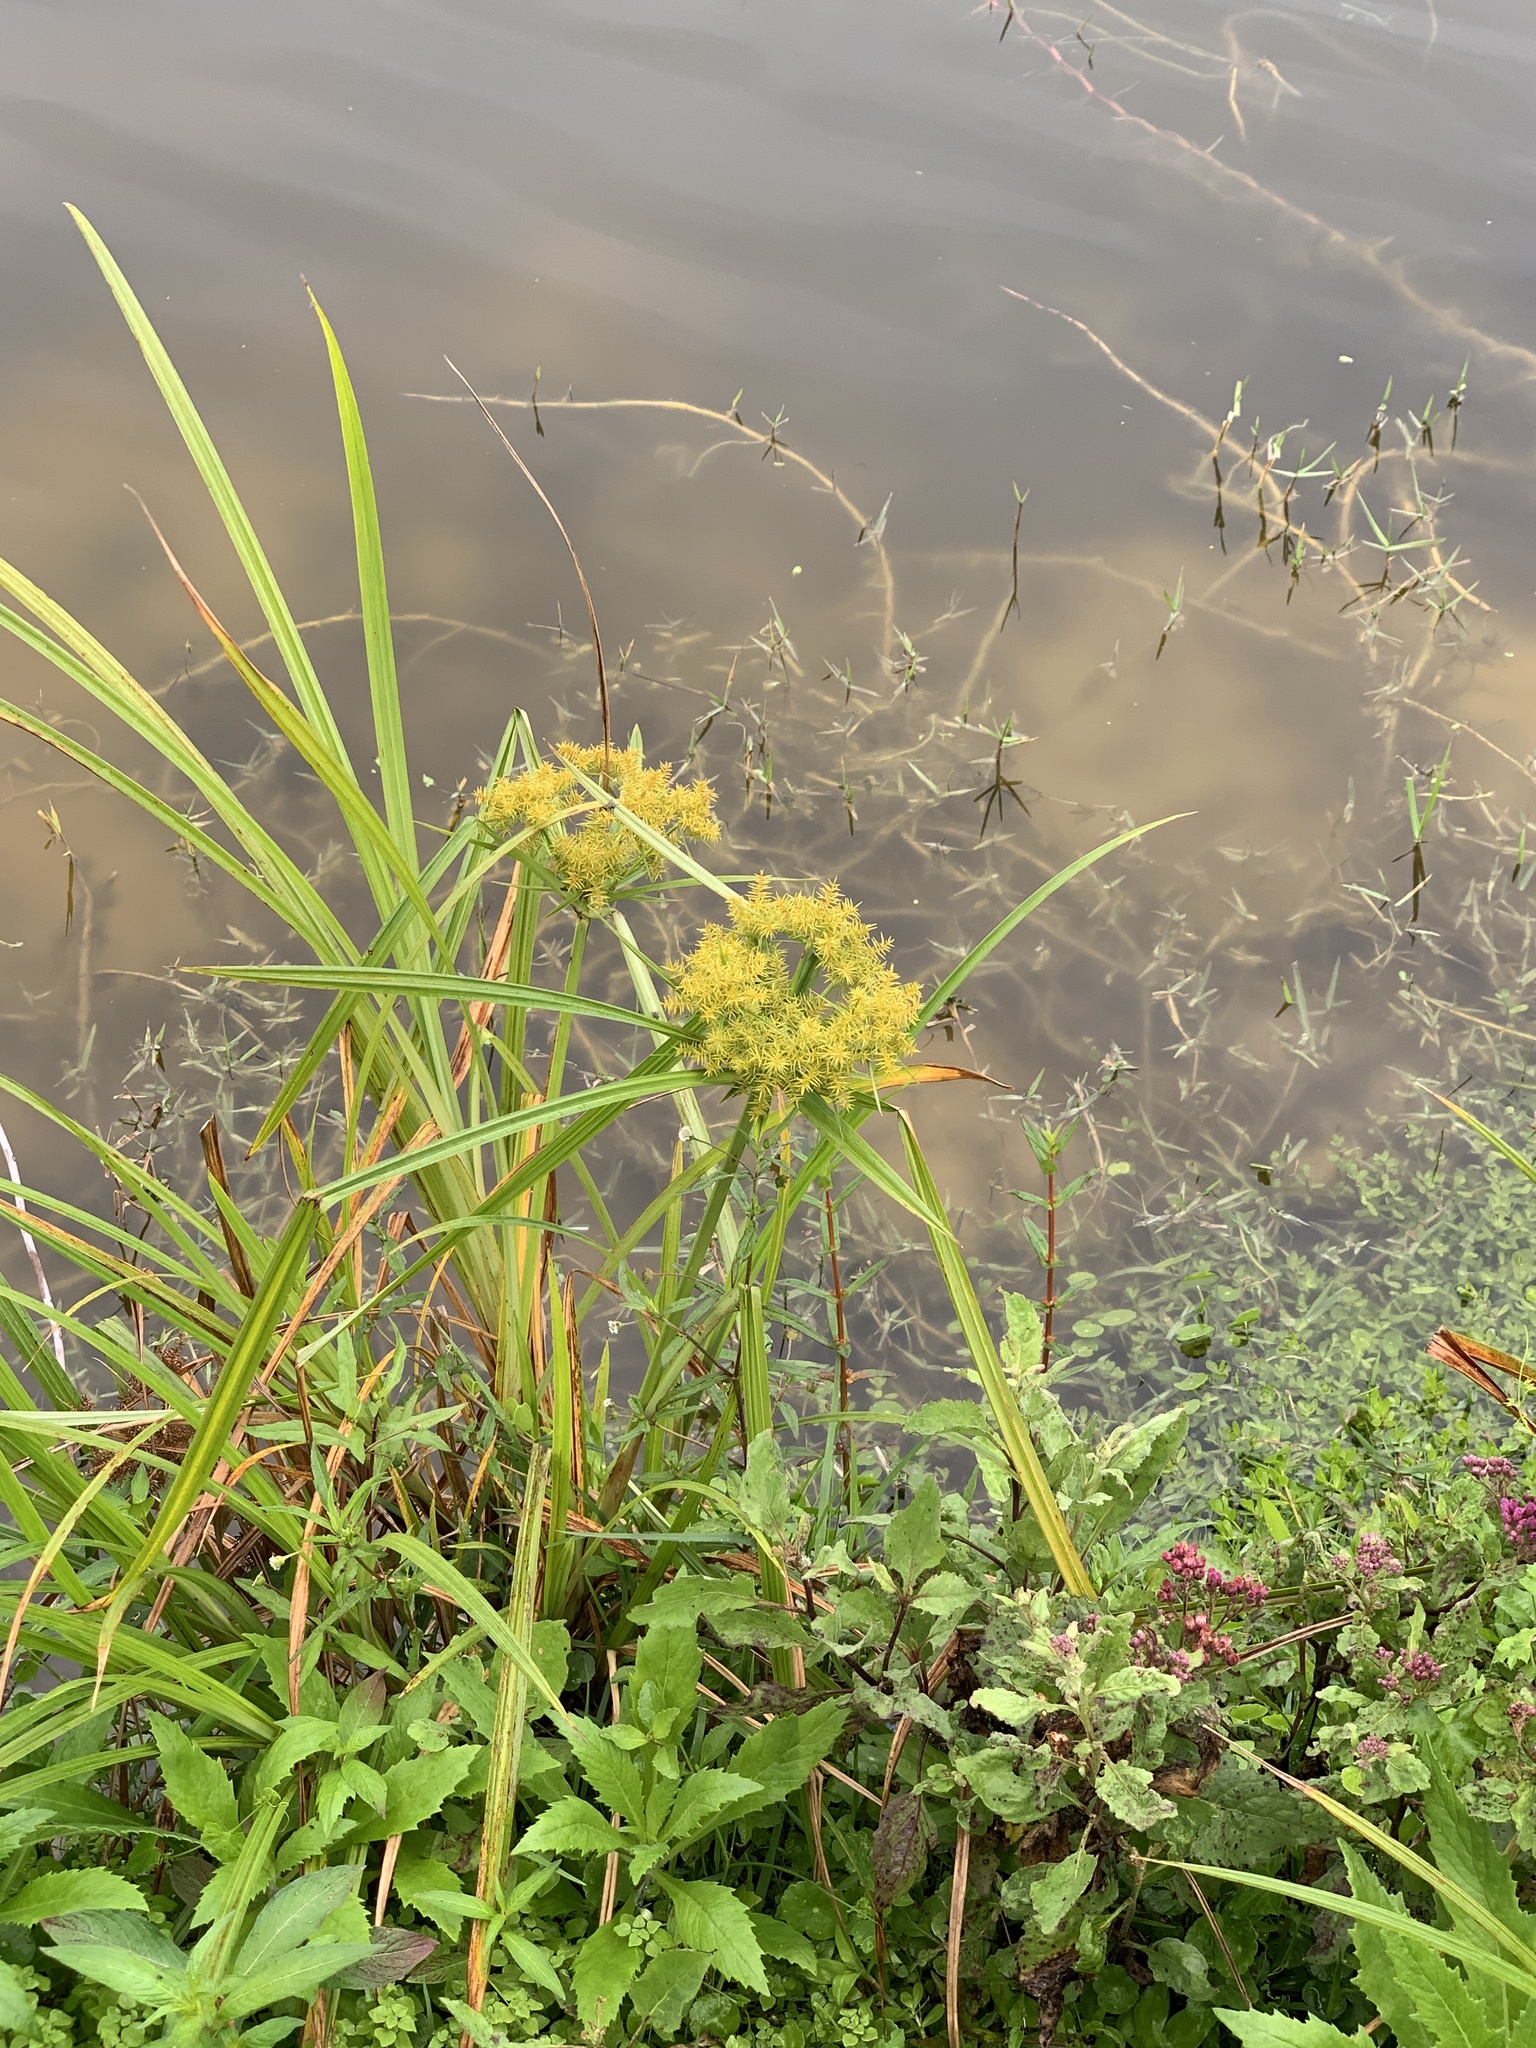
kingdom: Plantae
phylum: Tracheophyta
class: Liliopsida
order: Poales
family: Cyperaceae
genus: Cyperus
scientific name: Cyperus odoratus
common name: Fragrant flatsedge
